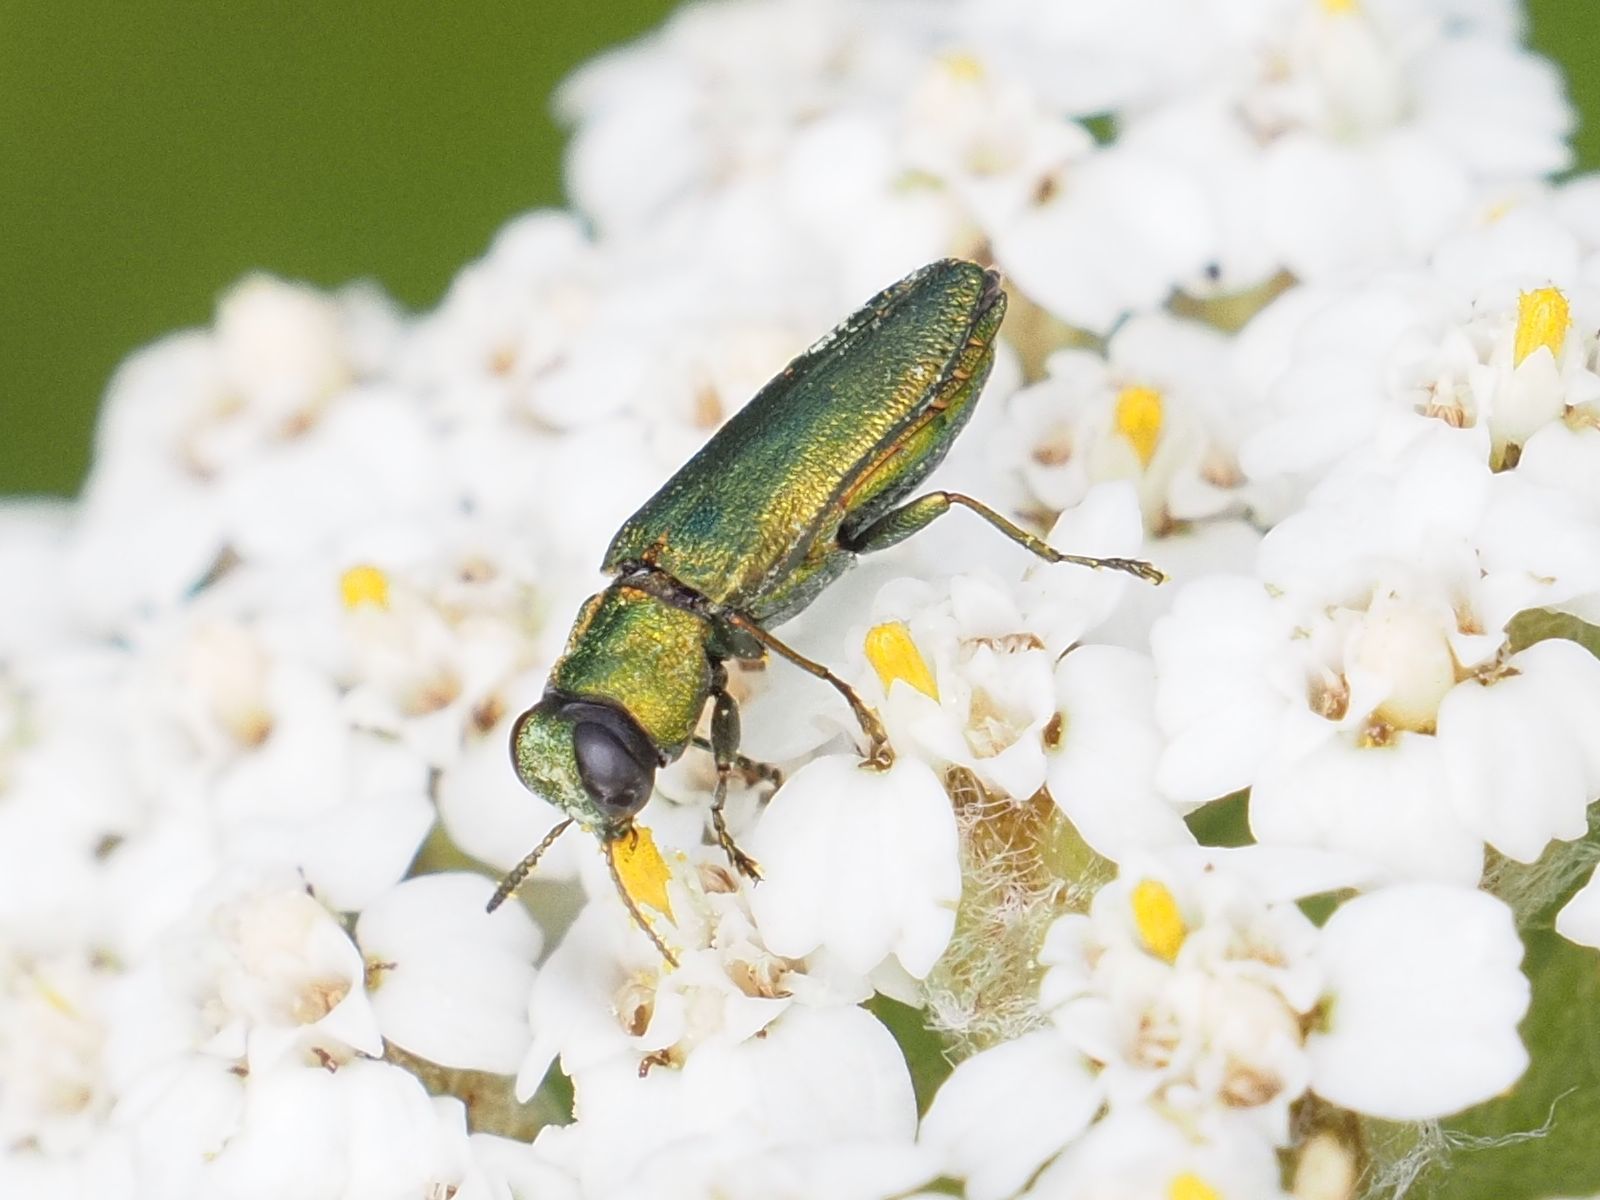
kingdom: Animalia
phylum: Arthropoda
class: Insecta
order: Coleoptera
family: Buprestidae
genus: Anthaxia
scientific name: Anthaxia nitidula
